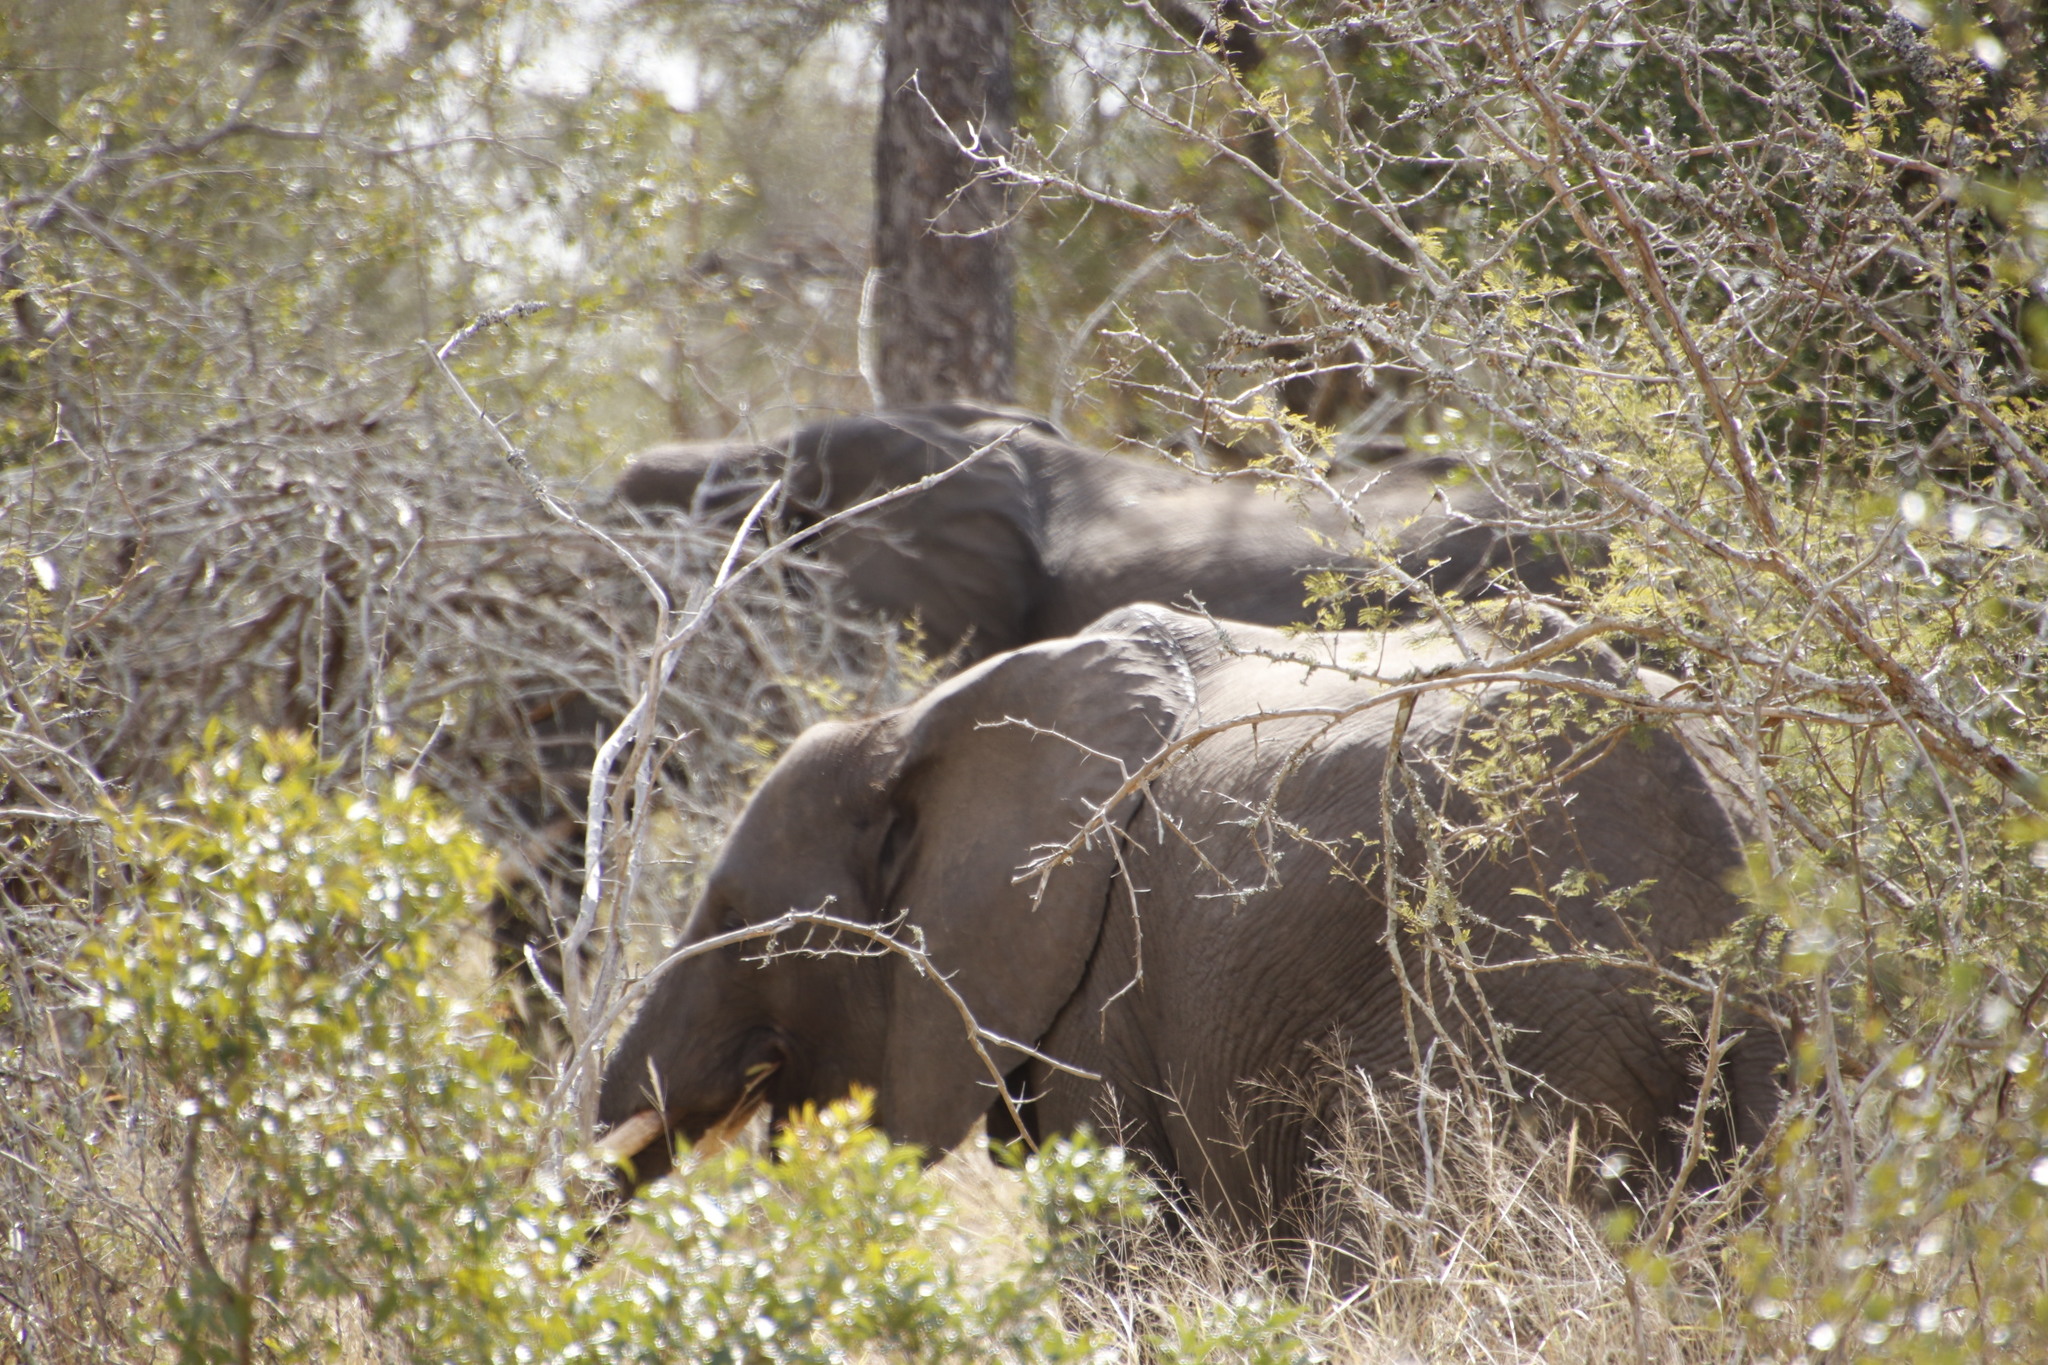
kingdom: Animalia
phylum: Chordata
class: Mammalia
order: Proboscidea
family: Elephantidae
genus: Loxodonta
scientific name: Loxodonta africana
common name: African elephant
